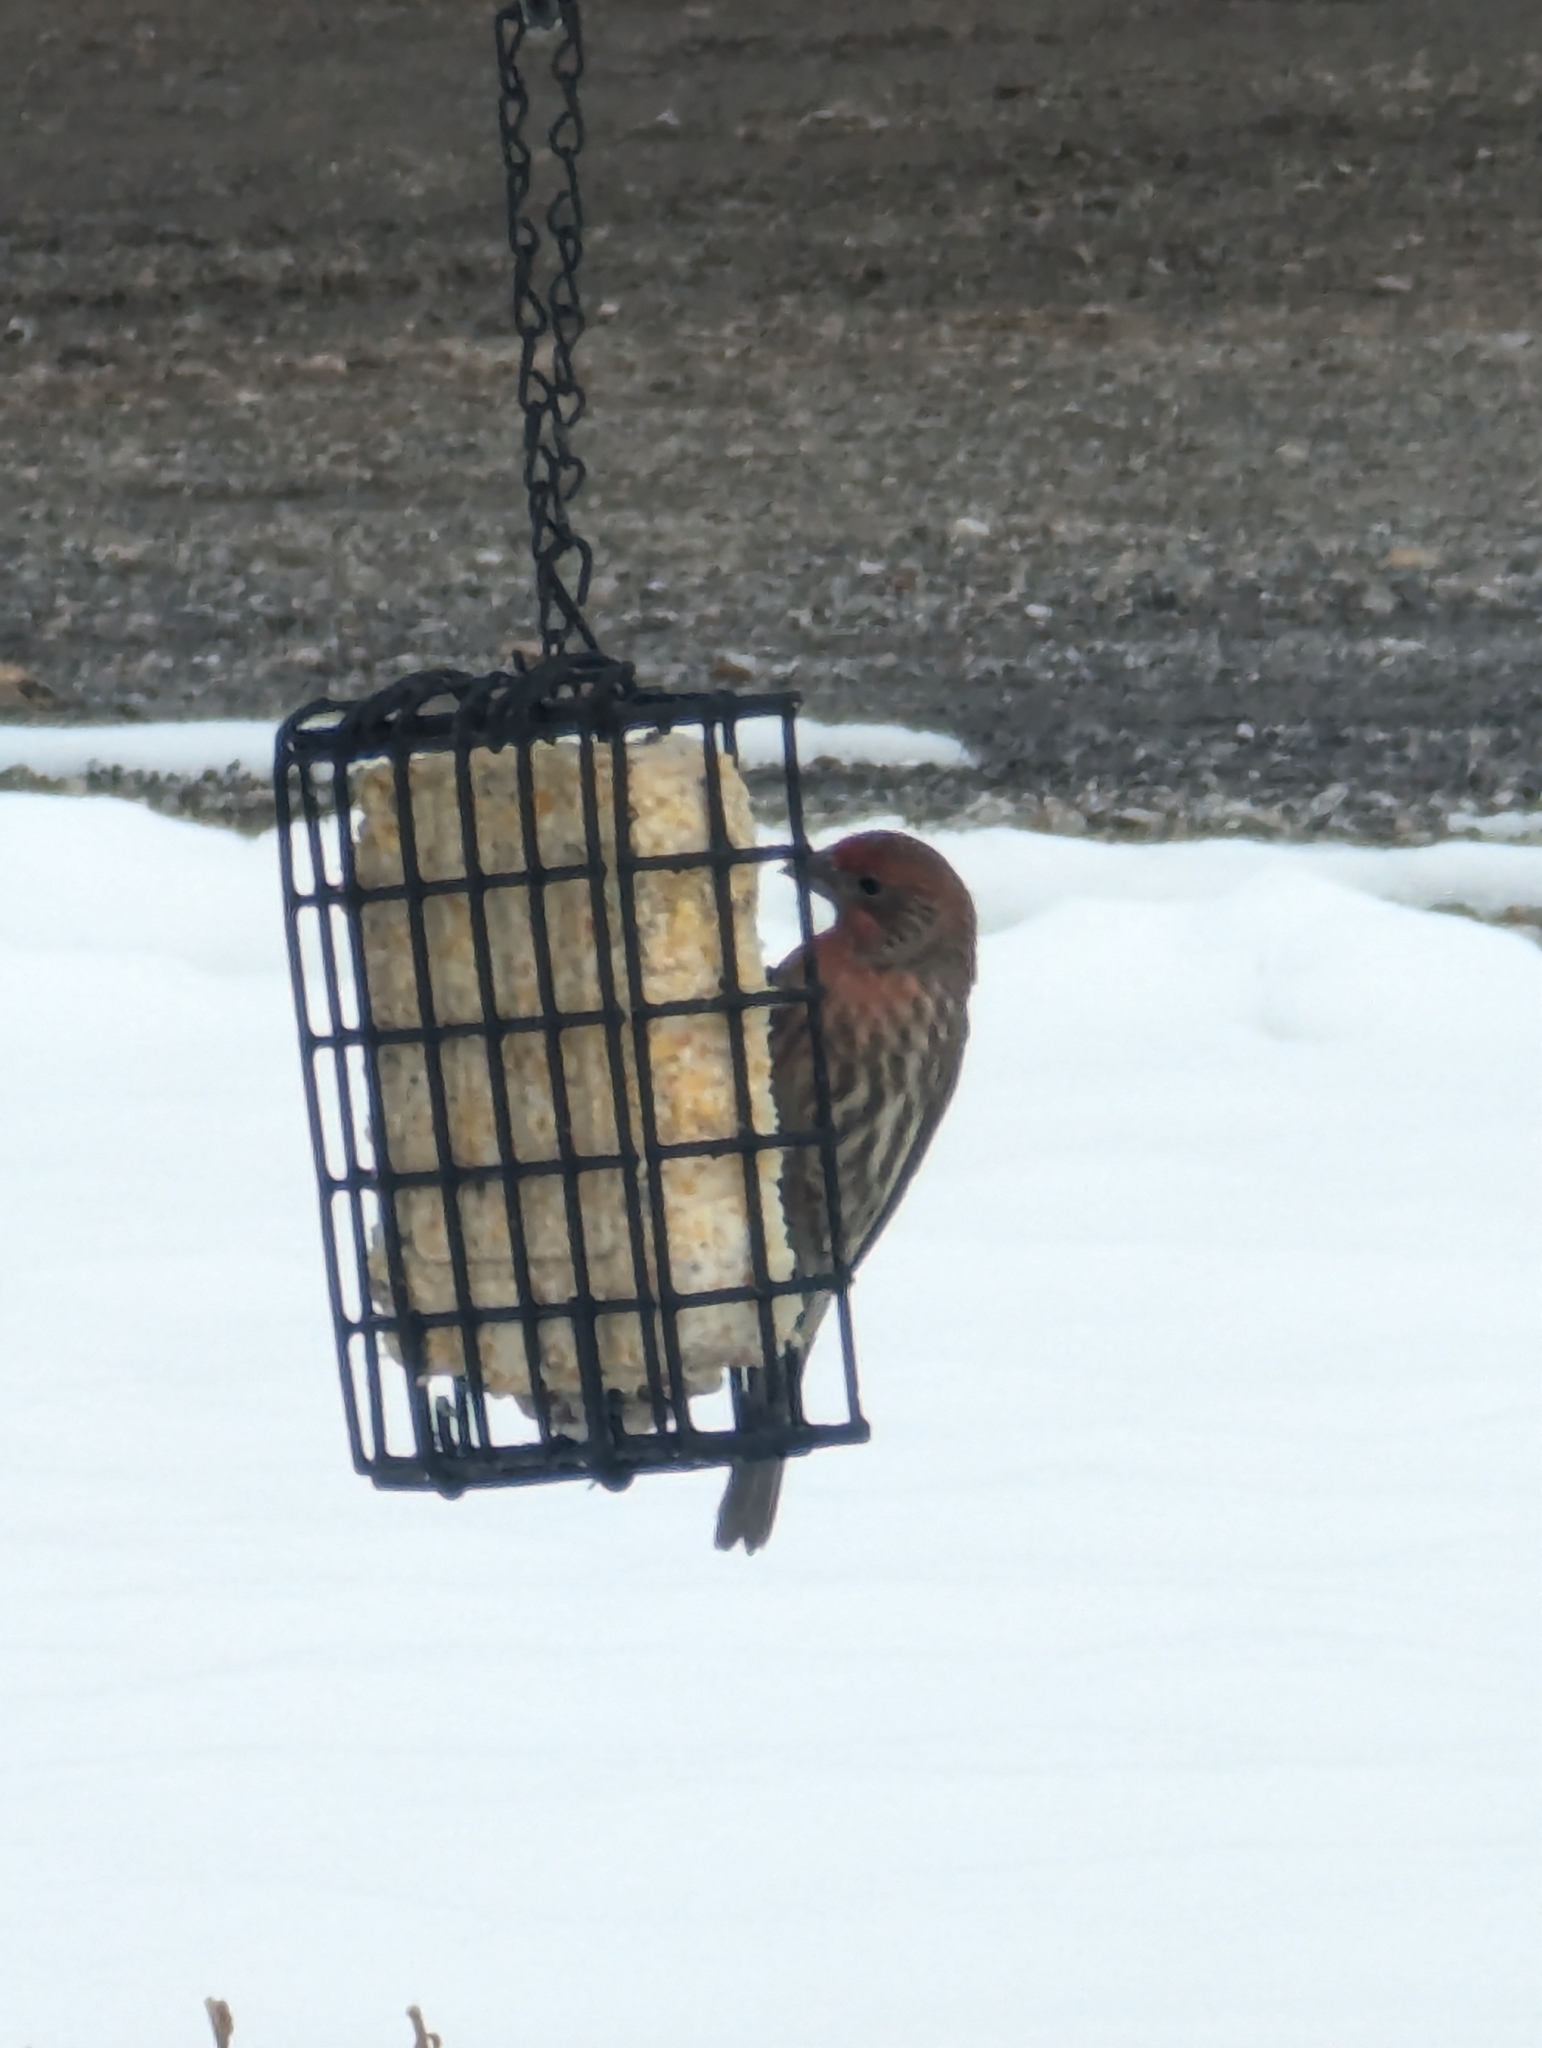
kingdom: Animalia
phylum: Chordata
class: Aves
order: Passeriformes
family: Fringillidae
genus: Haemorhous
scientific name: Haemorhous mexicanus
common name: House finch
